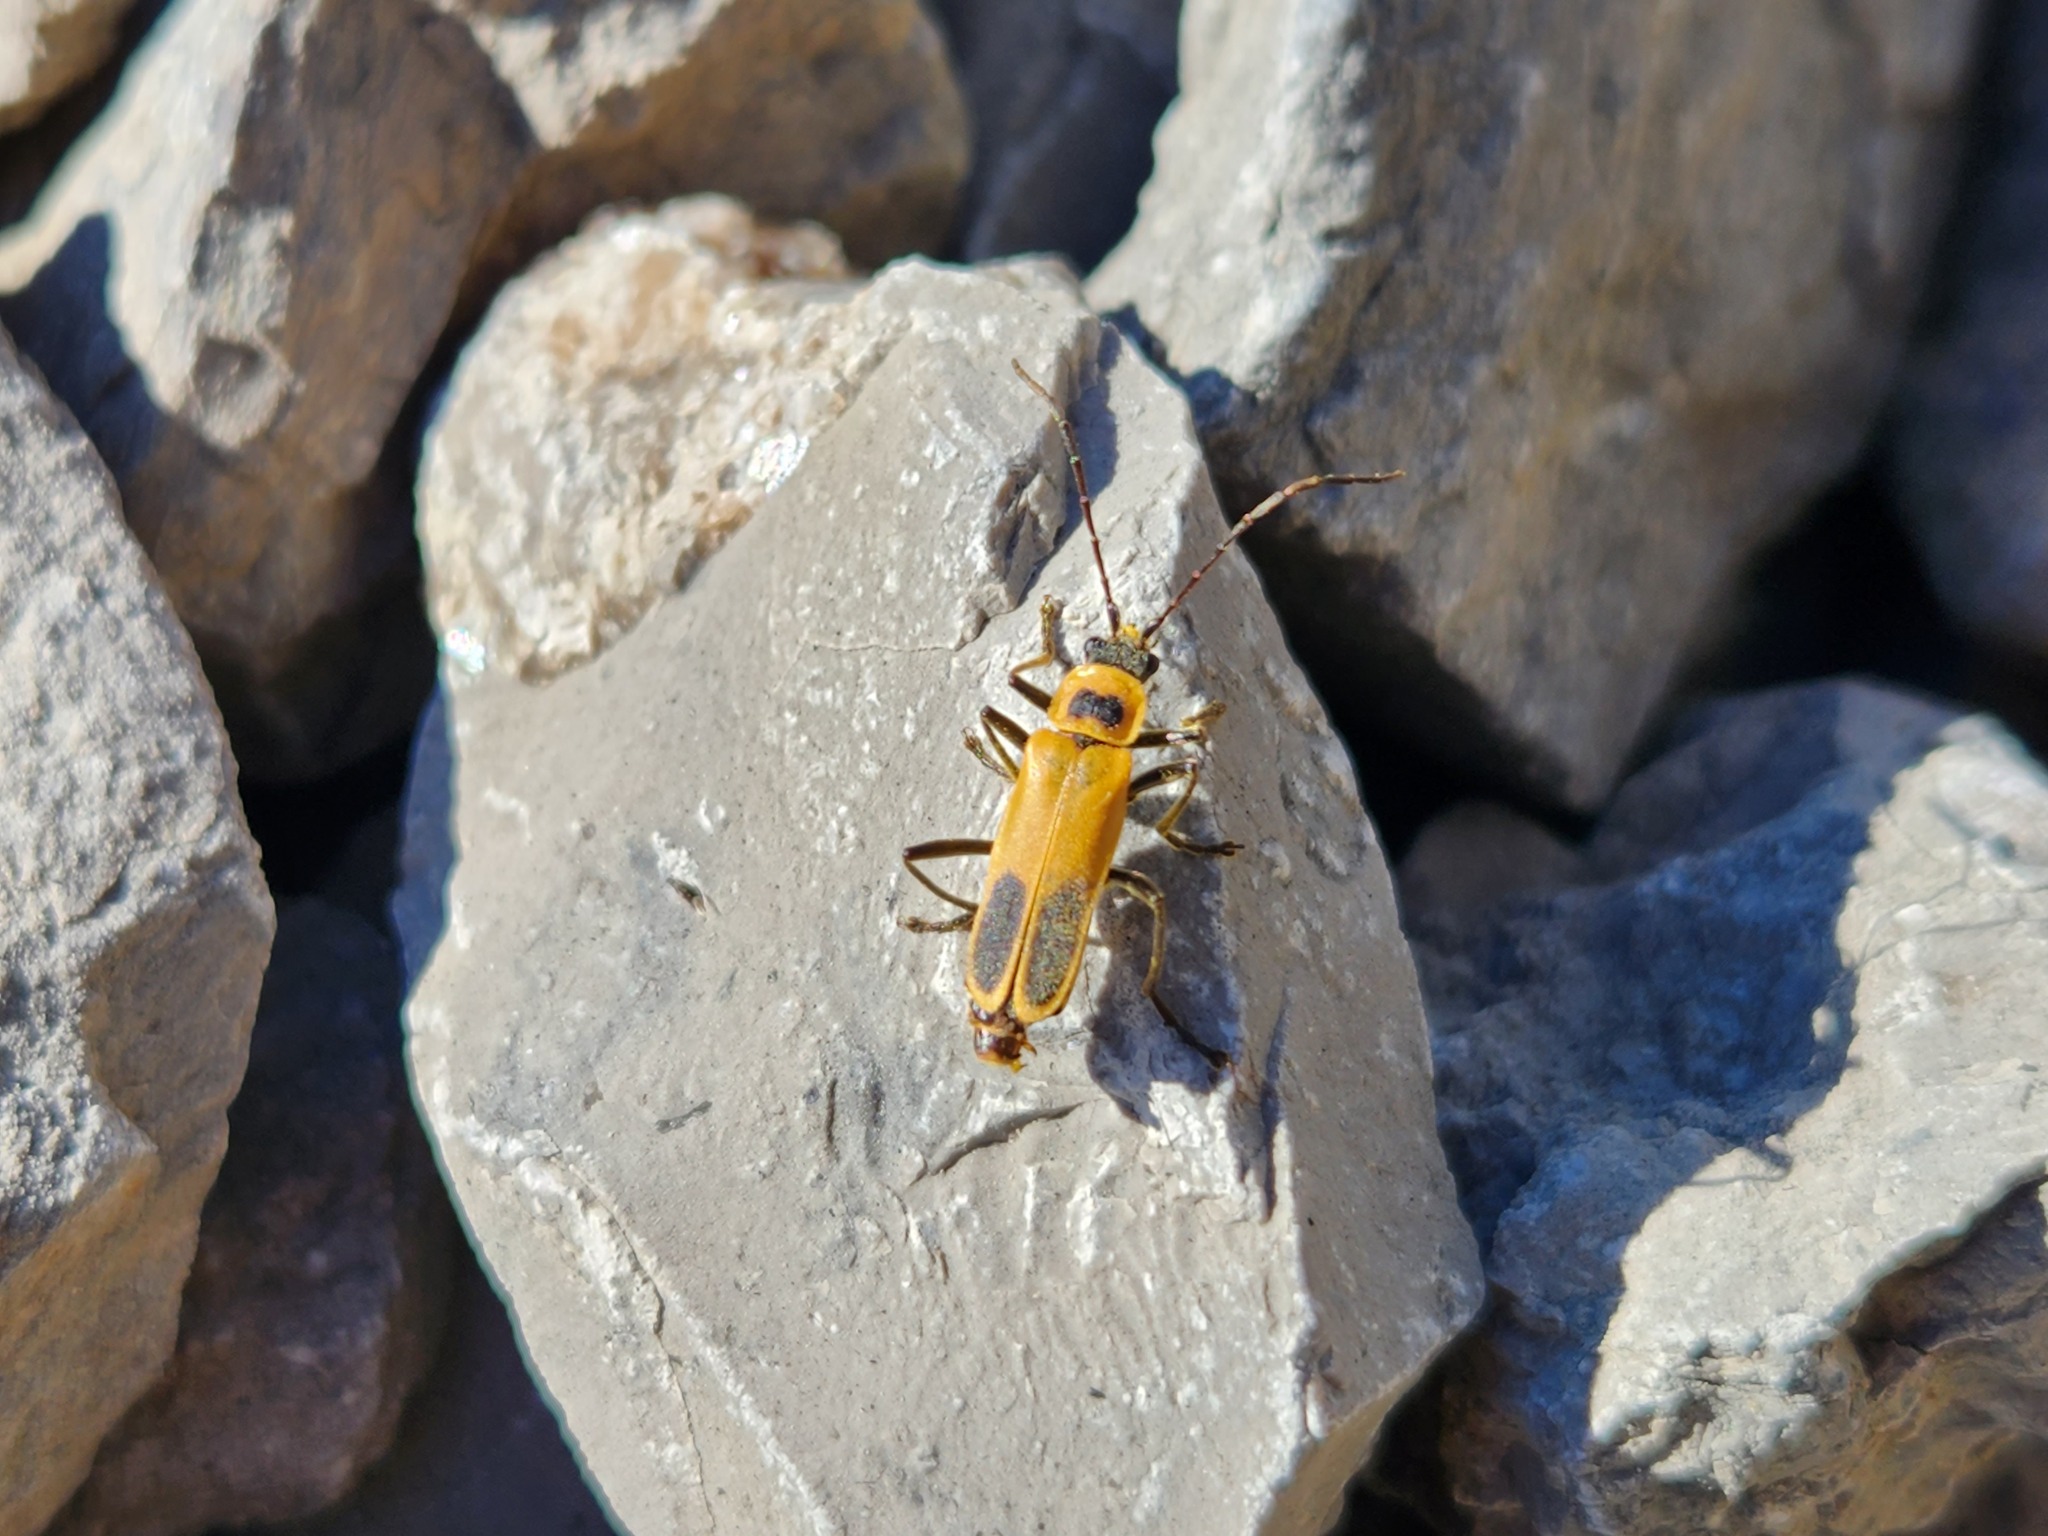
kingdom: Animalia
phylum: Arthropoda
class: Insecta
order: Coleoptera
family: Cantharidae
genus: Chauliognathus
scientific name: Chauliognathus pensylvanicus
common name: Goldenrod soldier beetle
